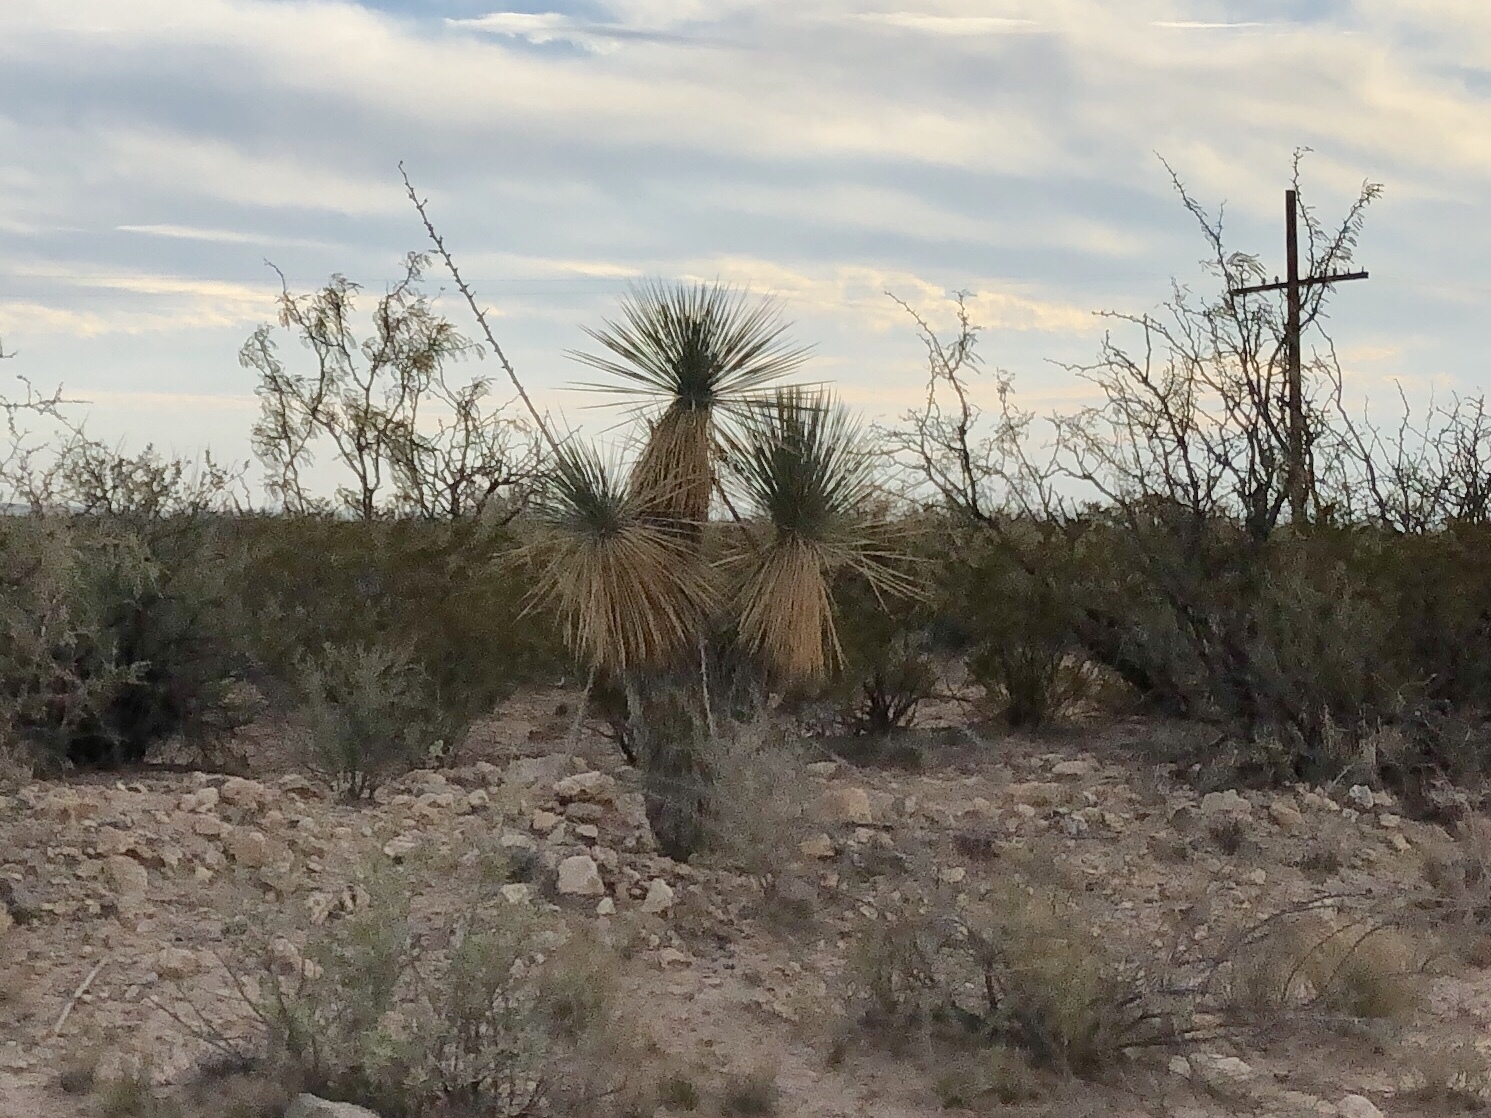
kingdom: Plantae
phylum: Tracheophyta
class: Liliopsida
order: Asparagales
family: Asparagaceae
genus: Yucca
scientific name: Yucca elata
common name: Palmella
